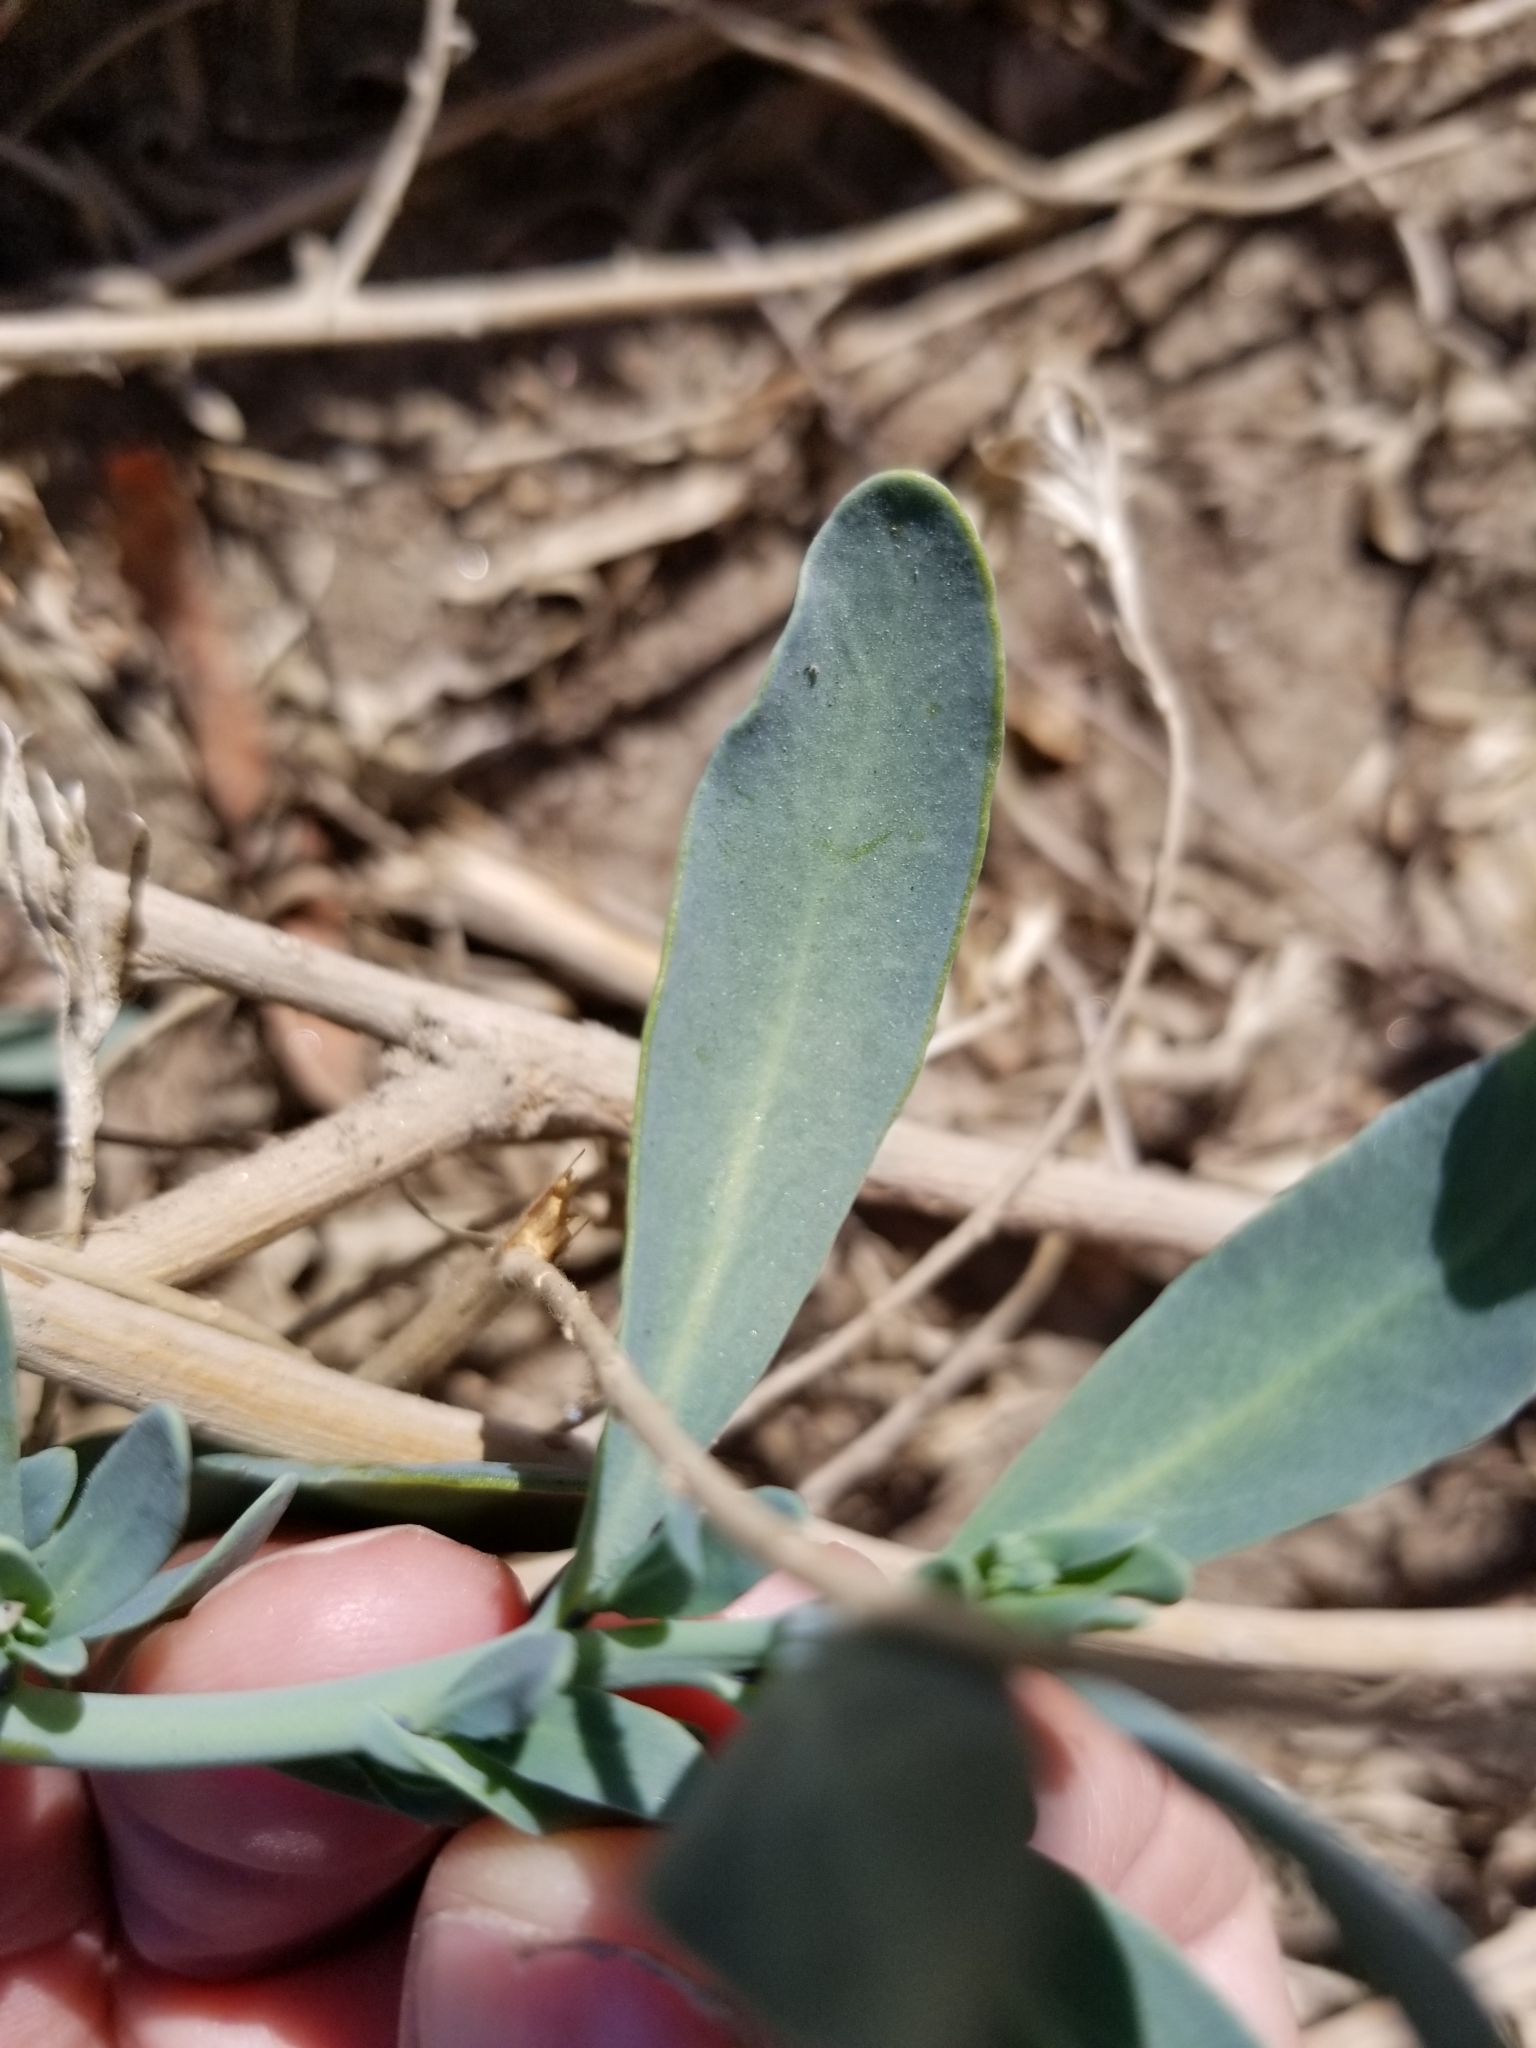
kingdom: Plantae
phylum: Tracheophyta
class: Magnoliopsida
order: Boraginales
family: Heliotropiaceae
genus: Heliotropium
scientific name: Heliotropium curassavicum
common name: Seaside heliotrope
